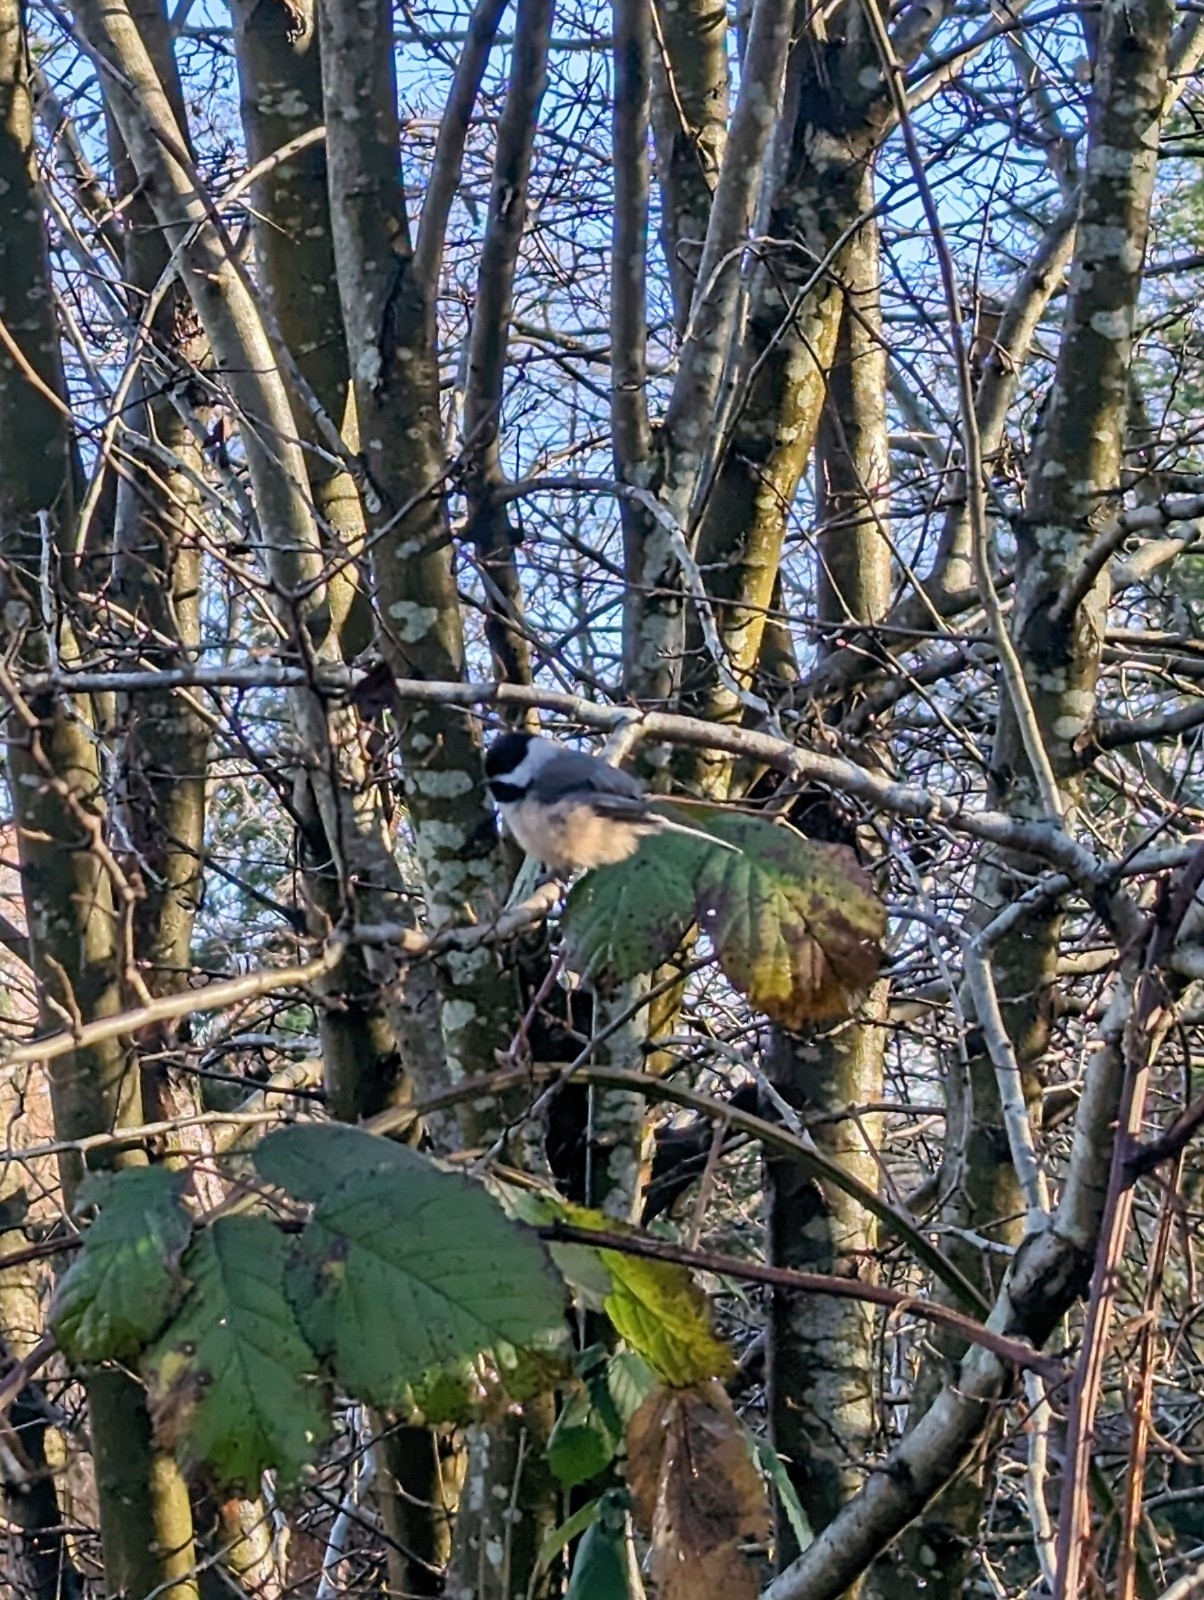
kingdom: Animalia
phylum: Chordata
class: Aves
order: Passeriformes
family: Paridae
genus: Poecile
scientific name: Poecile atricapillus
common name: Black-capped chickadee
